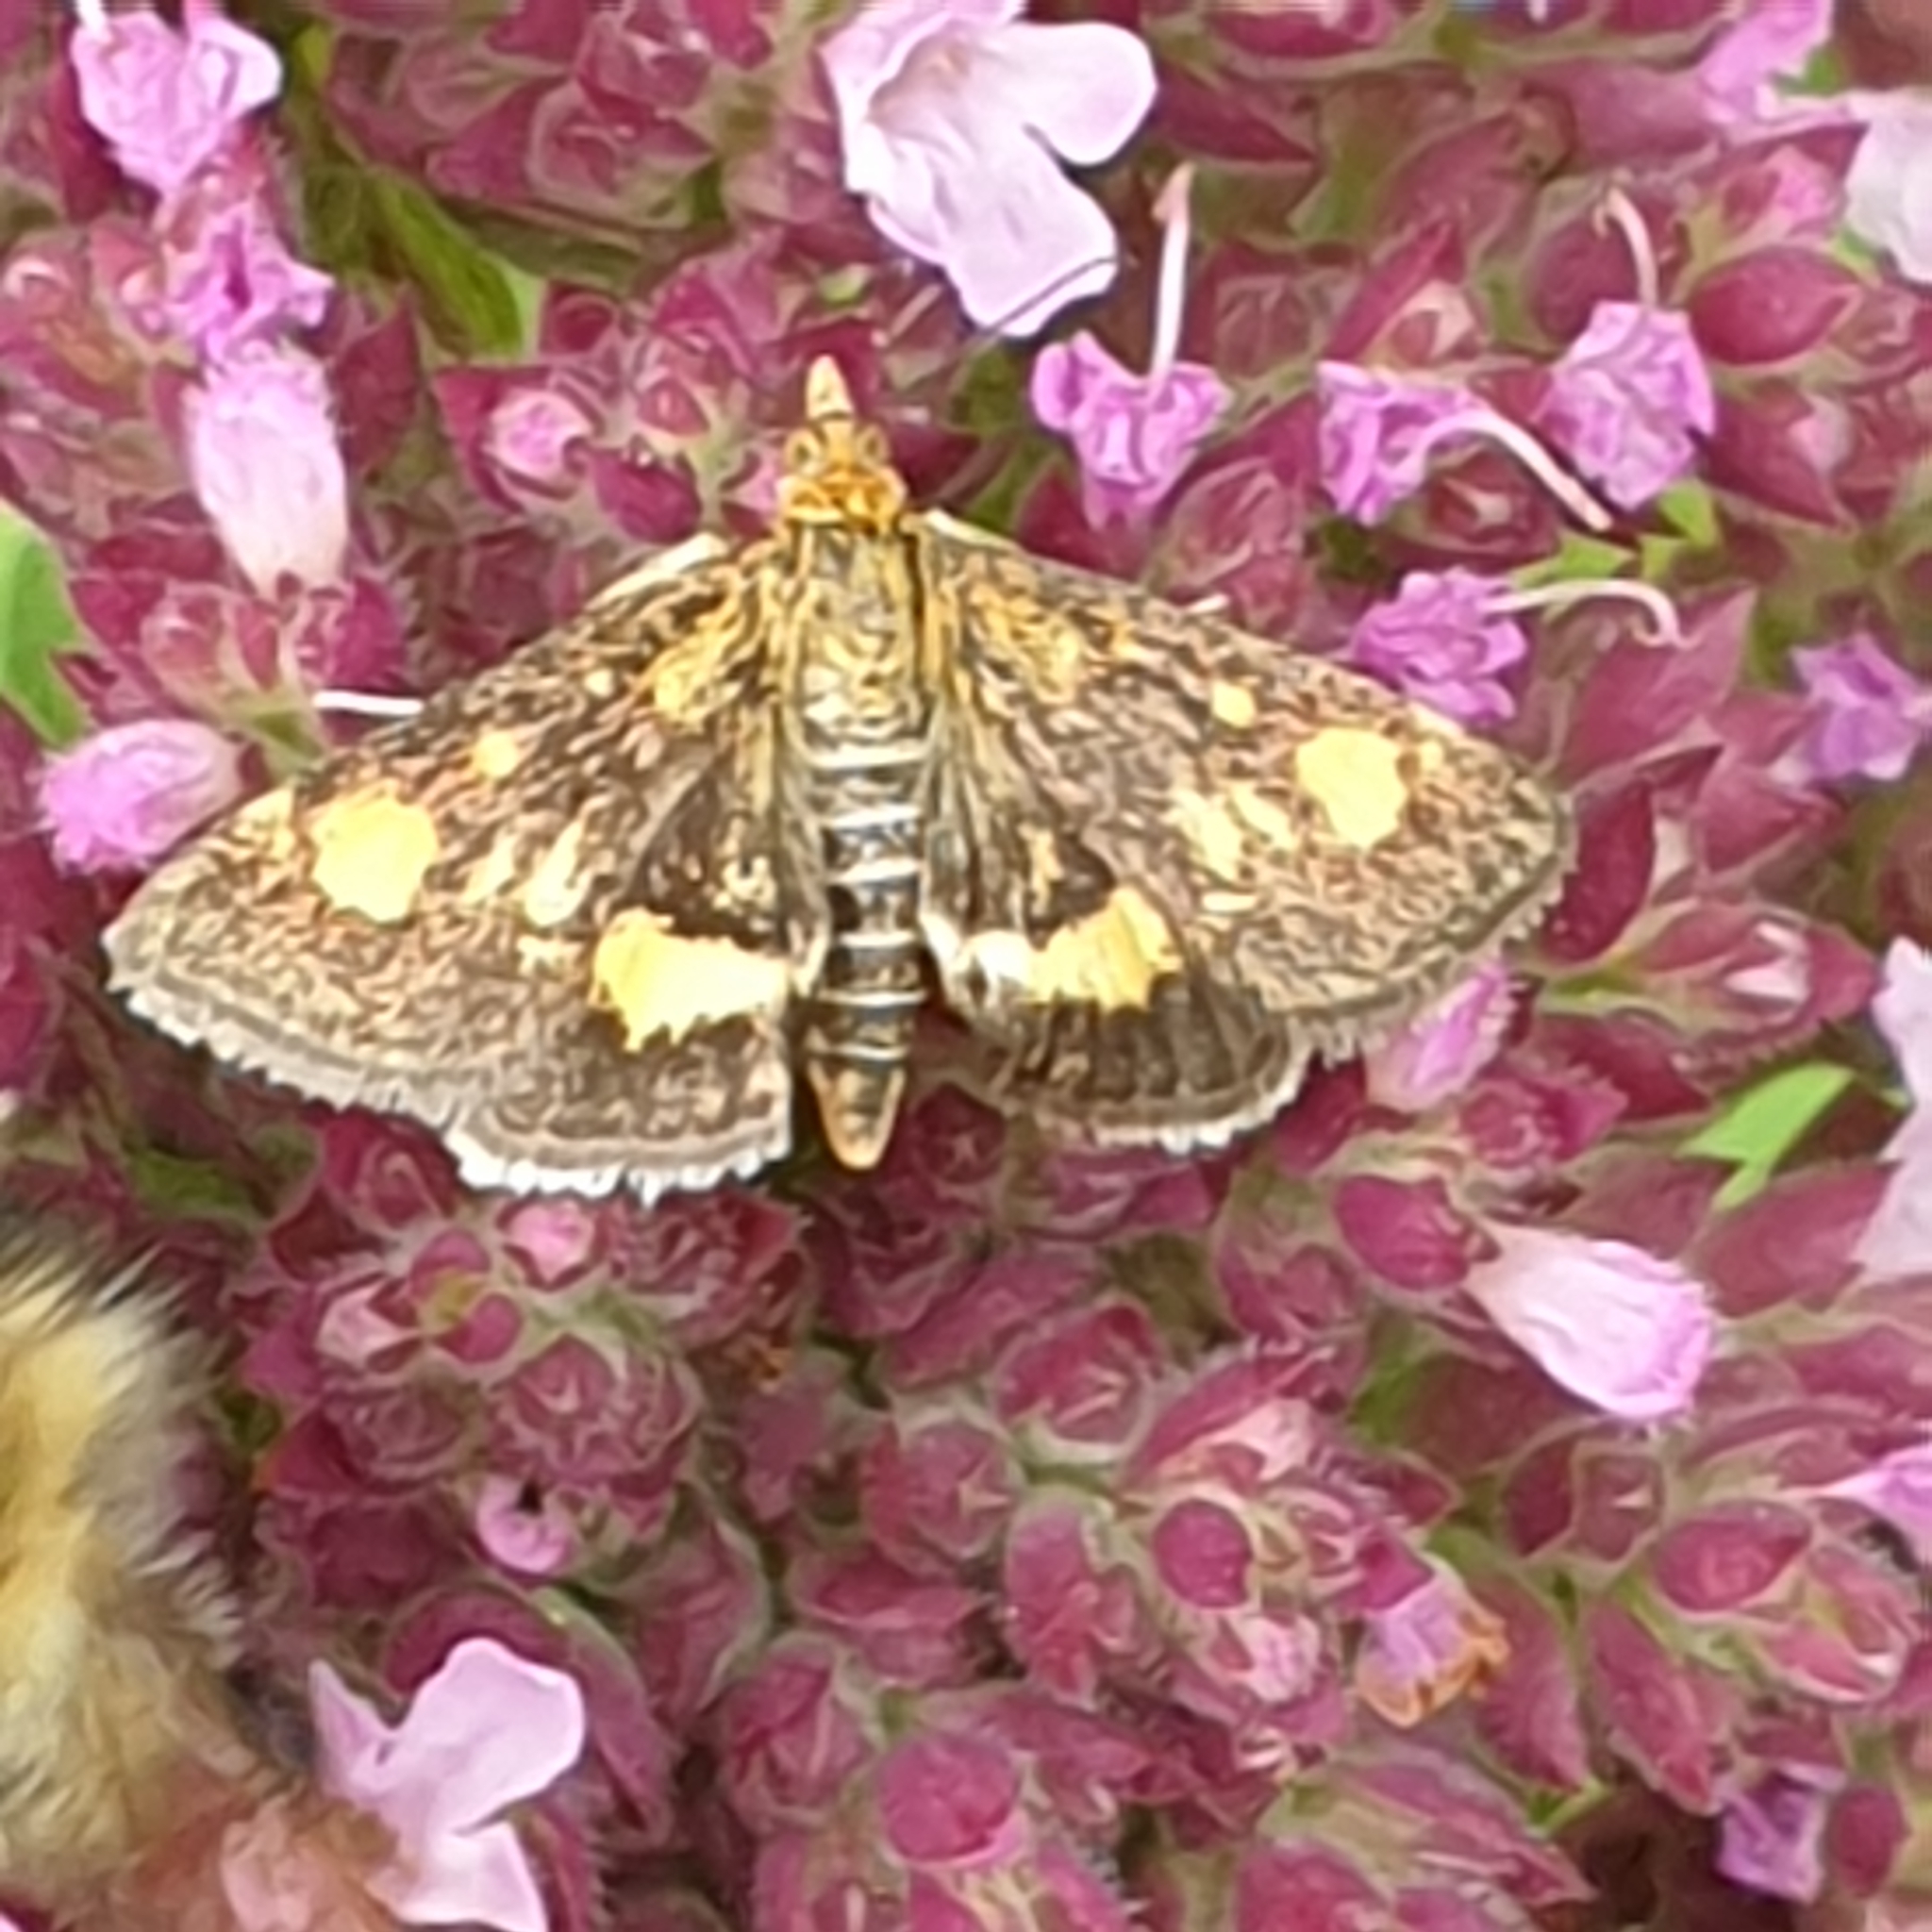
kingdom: Animalia
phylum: Arthropoda
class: Insecta
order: Lepidoptera
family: Crambidae
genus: Pyrausta
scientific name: Pyrausta aurata
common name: Small purple & gold
